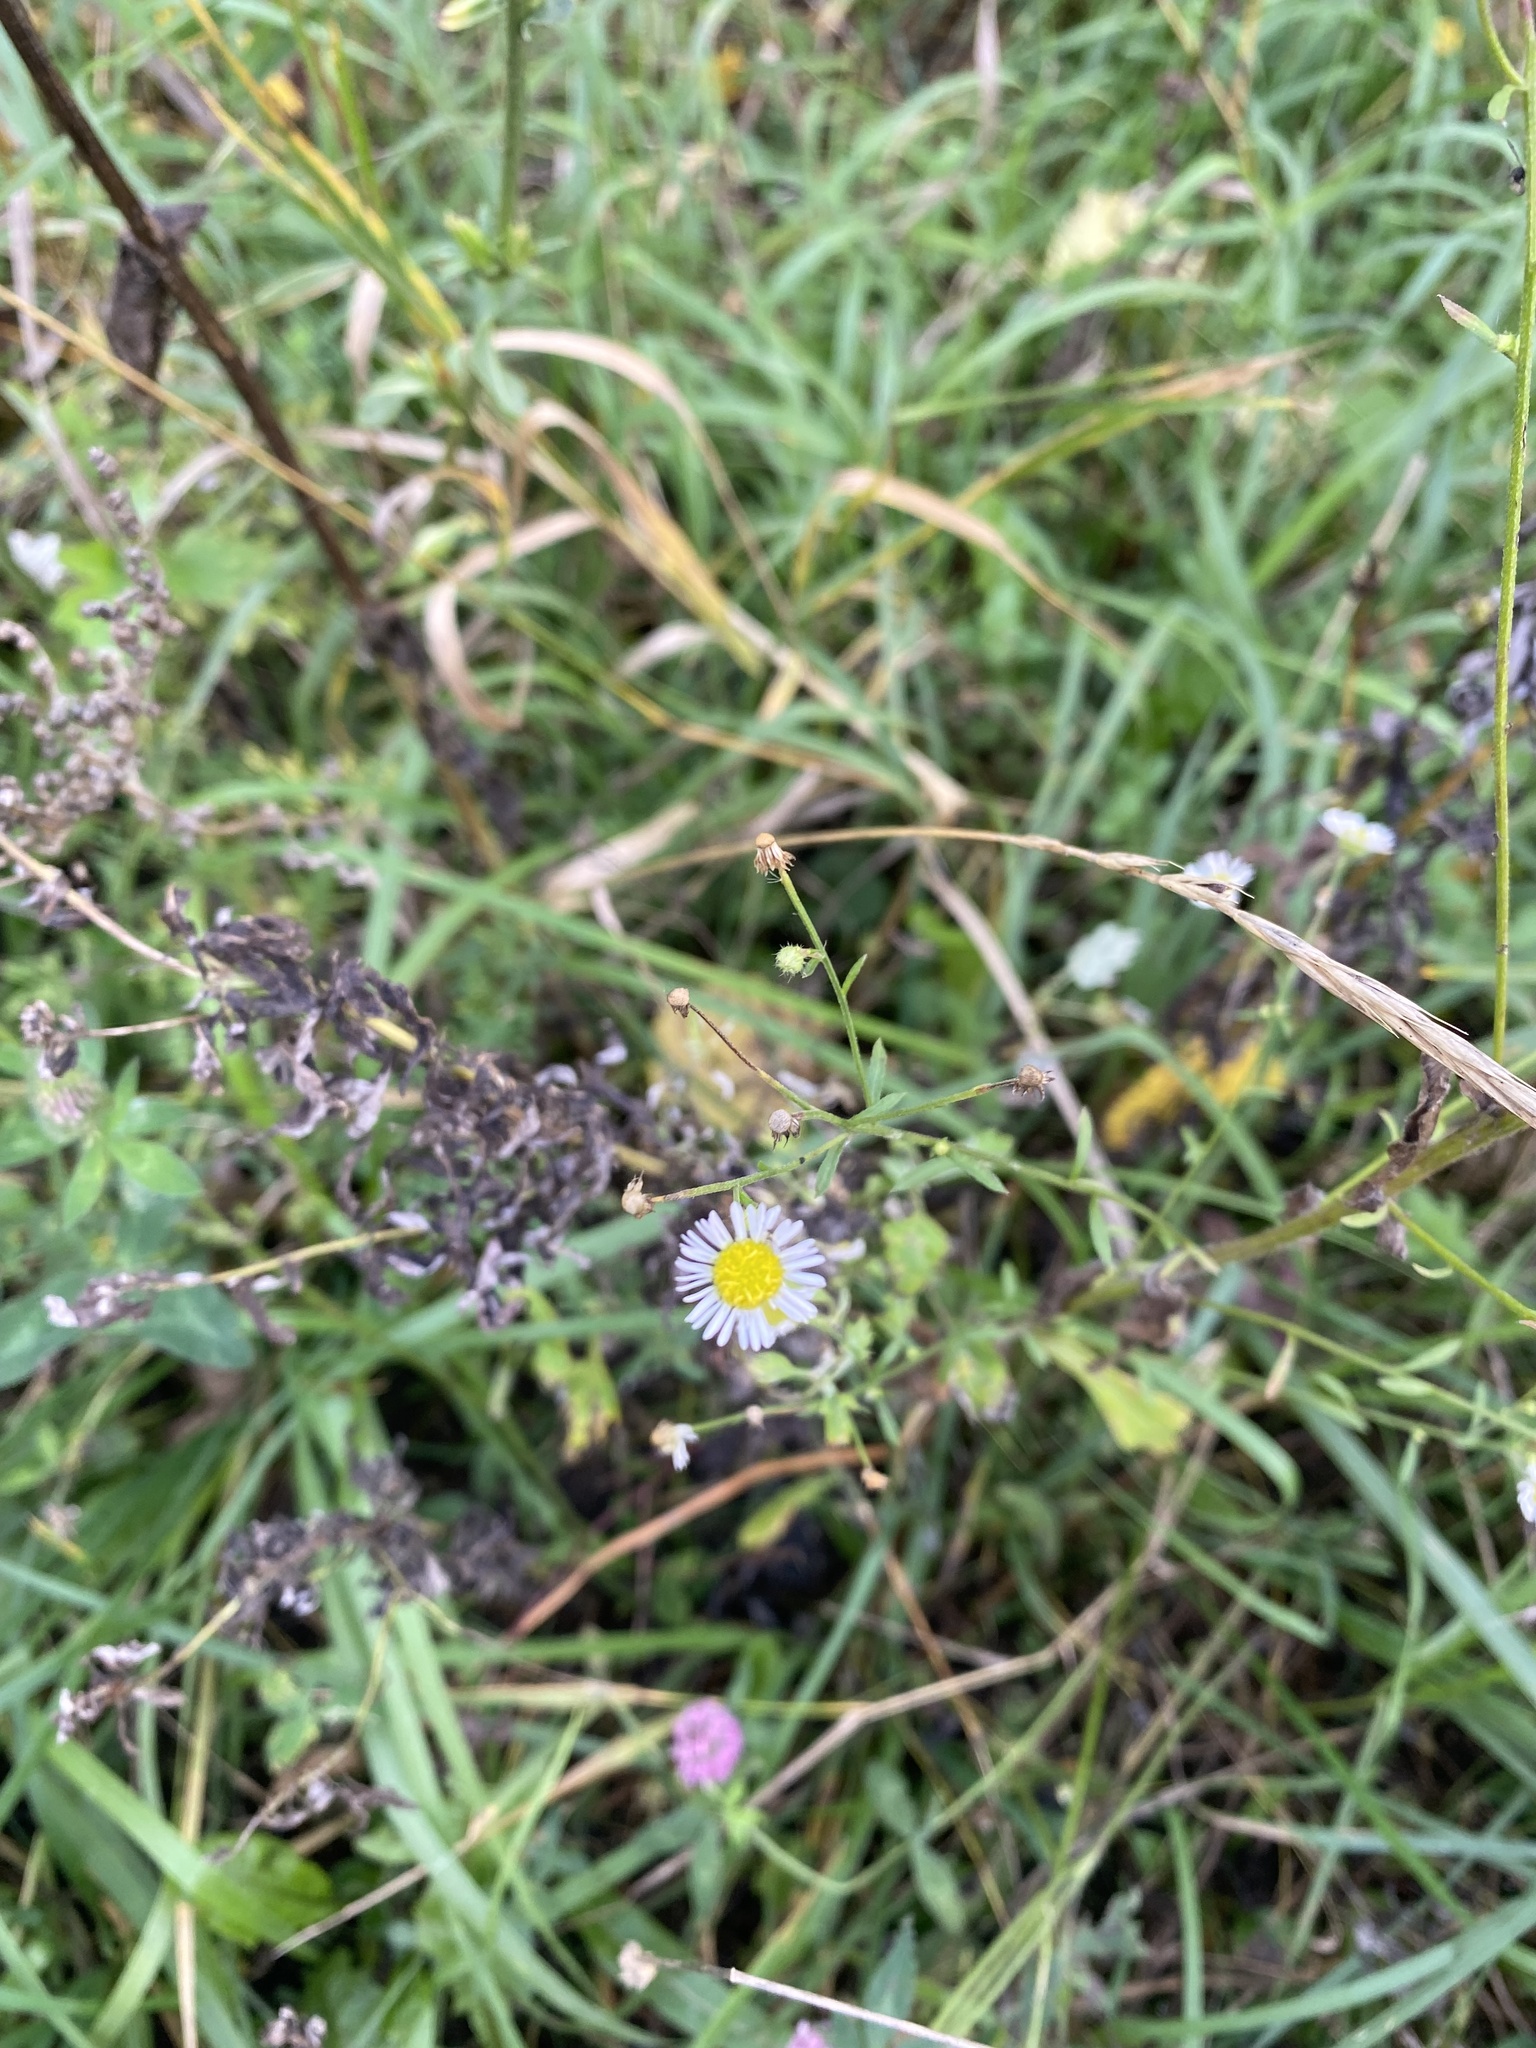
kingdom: Plantae
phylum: Tracheophyta
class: Magnoliopsida
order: Asterales
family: Asteraceae
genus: Erigeron
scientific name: Erigeron annuus
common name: Tall fleabane
